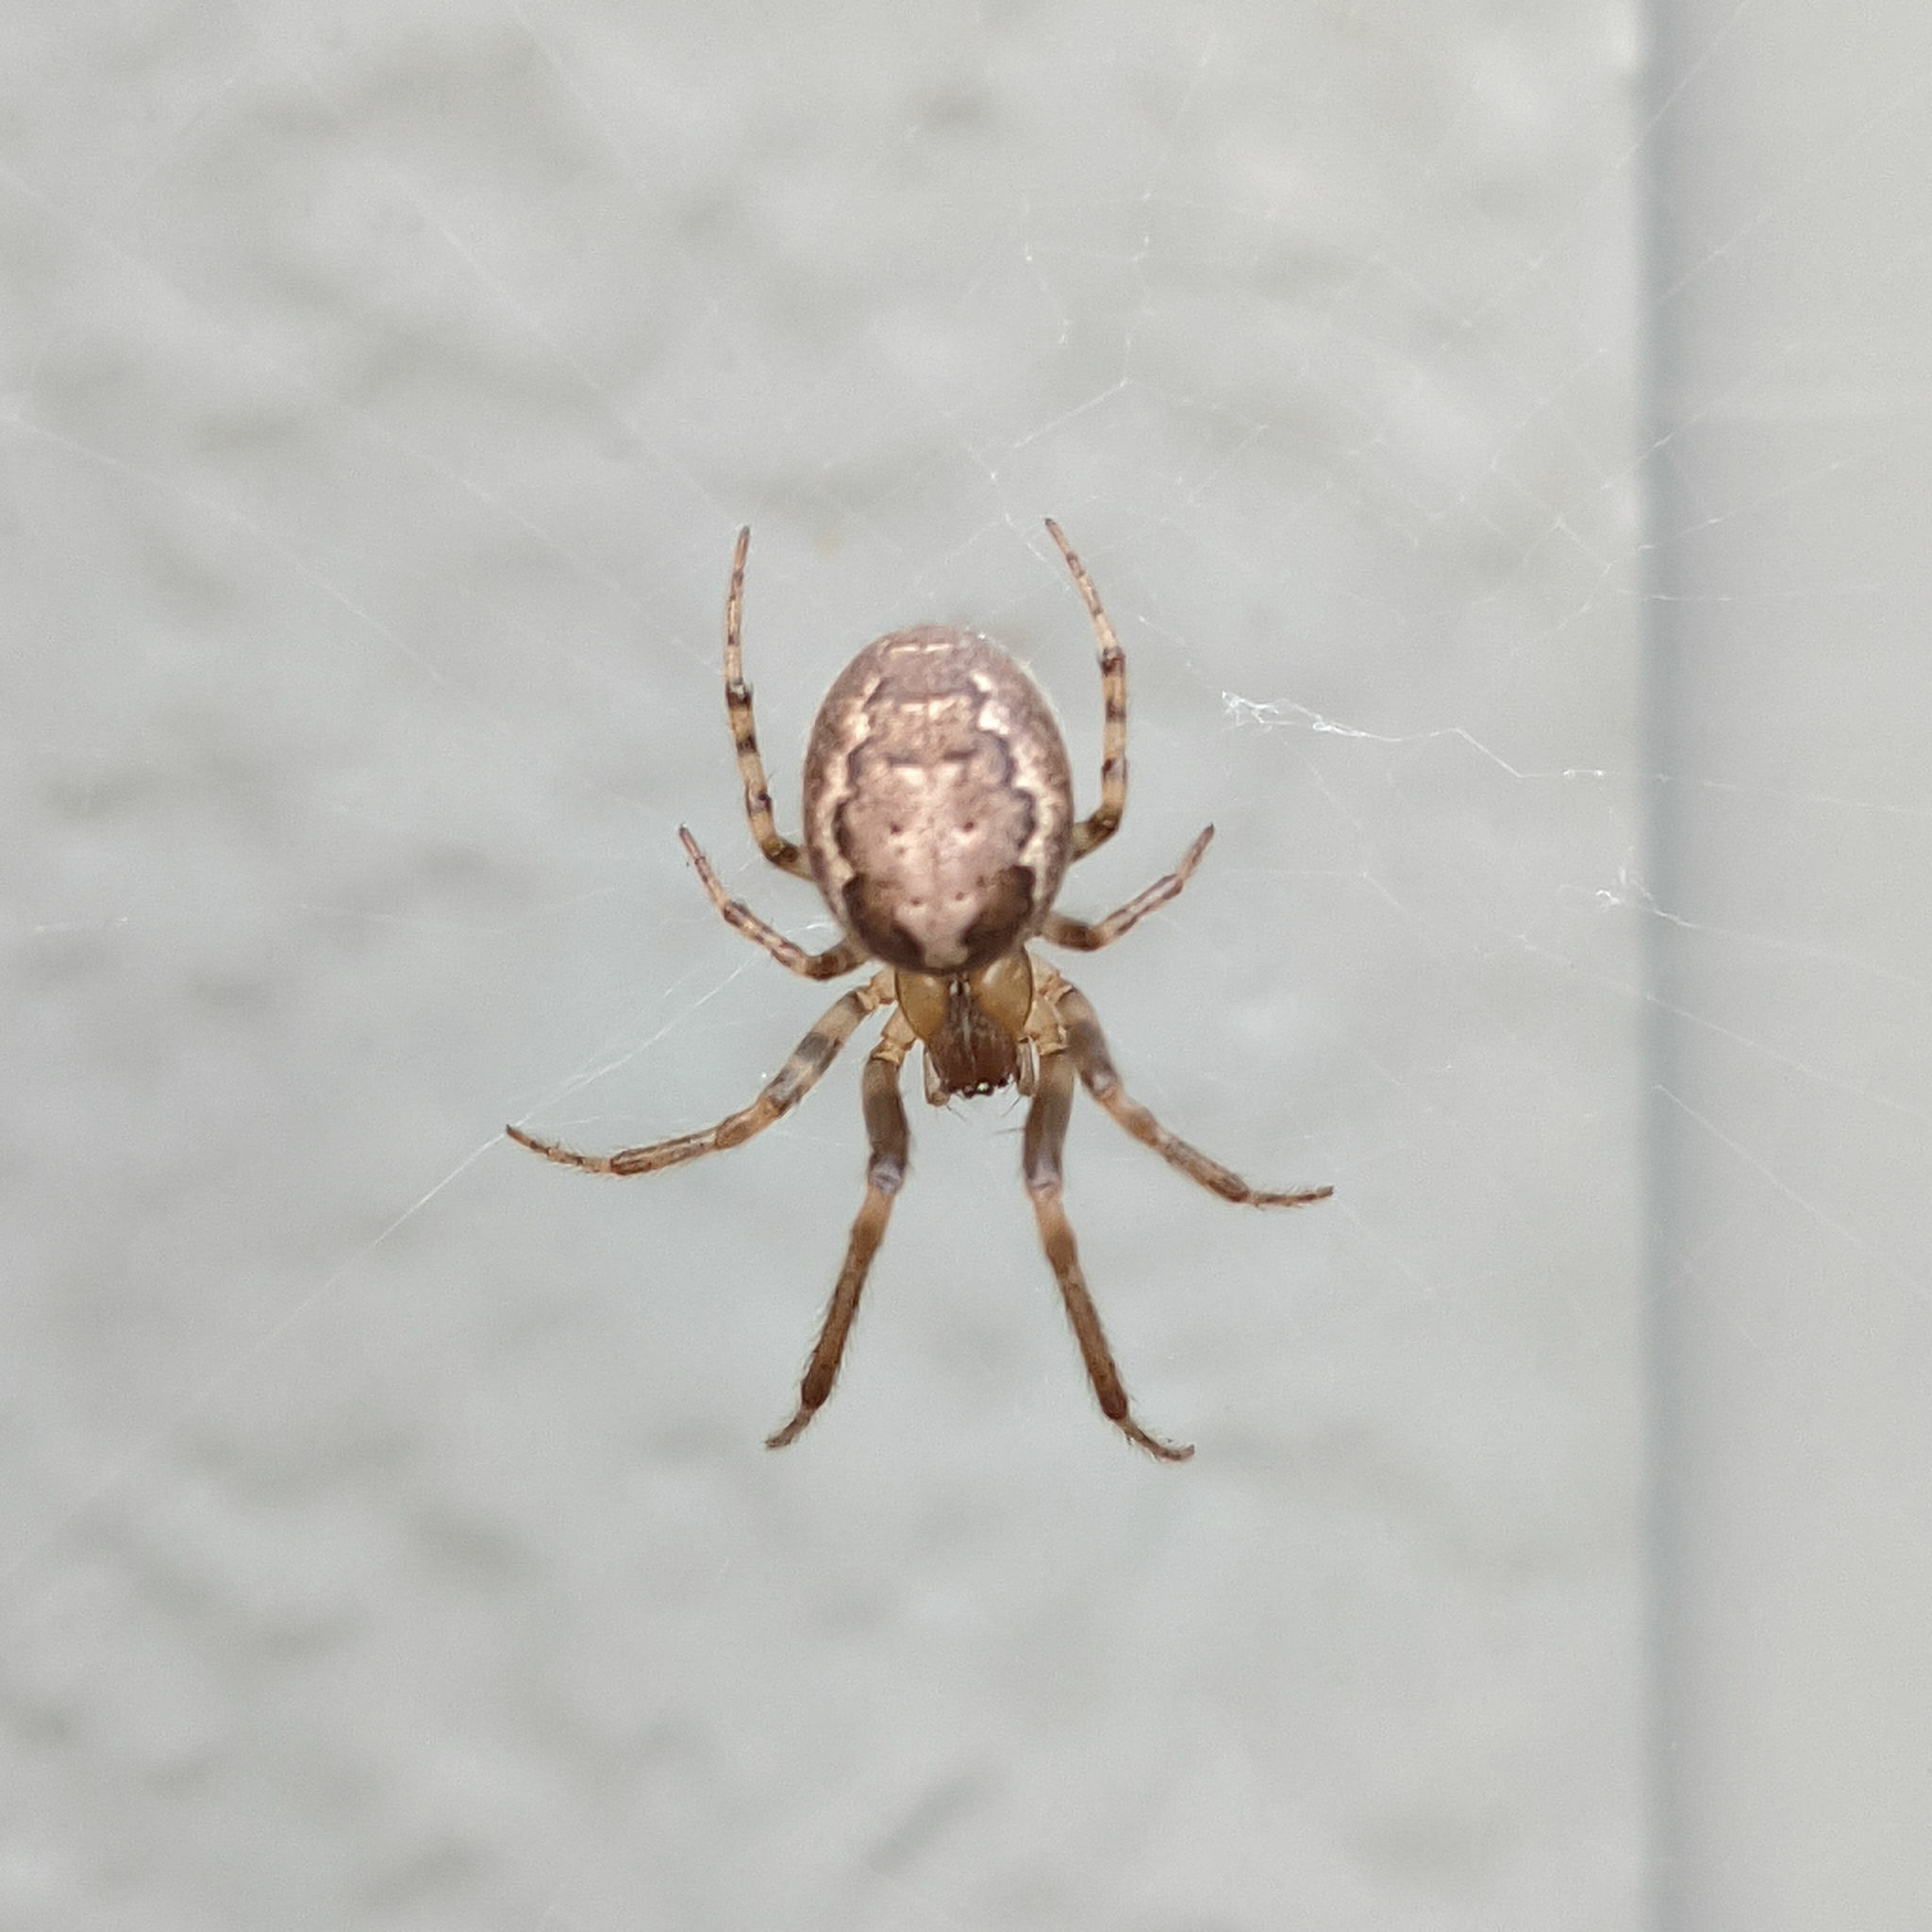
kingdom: Animalia
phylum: Arthropoda
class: Arachnida
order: Araneae
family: Araneidae
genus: Zygiella
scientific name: Zygiella x-notata
